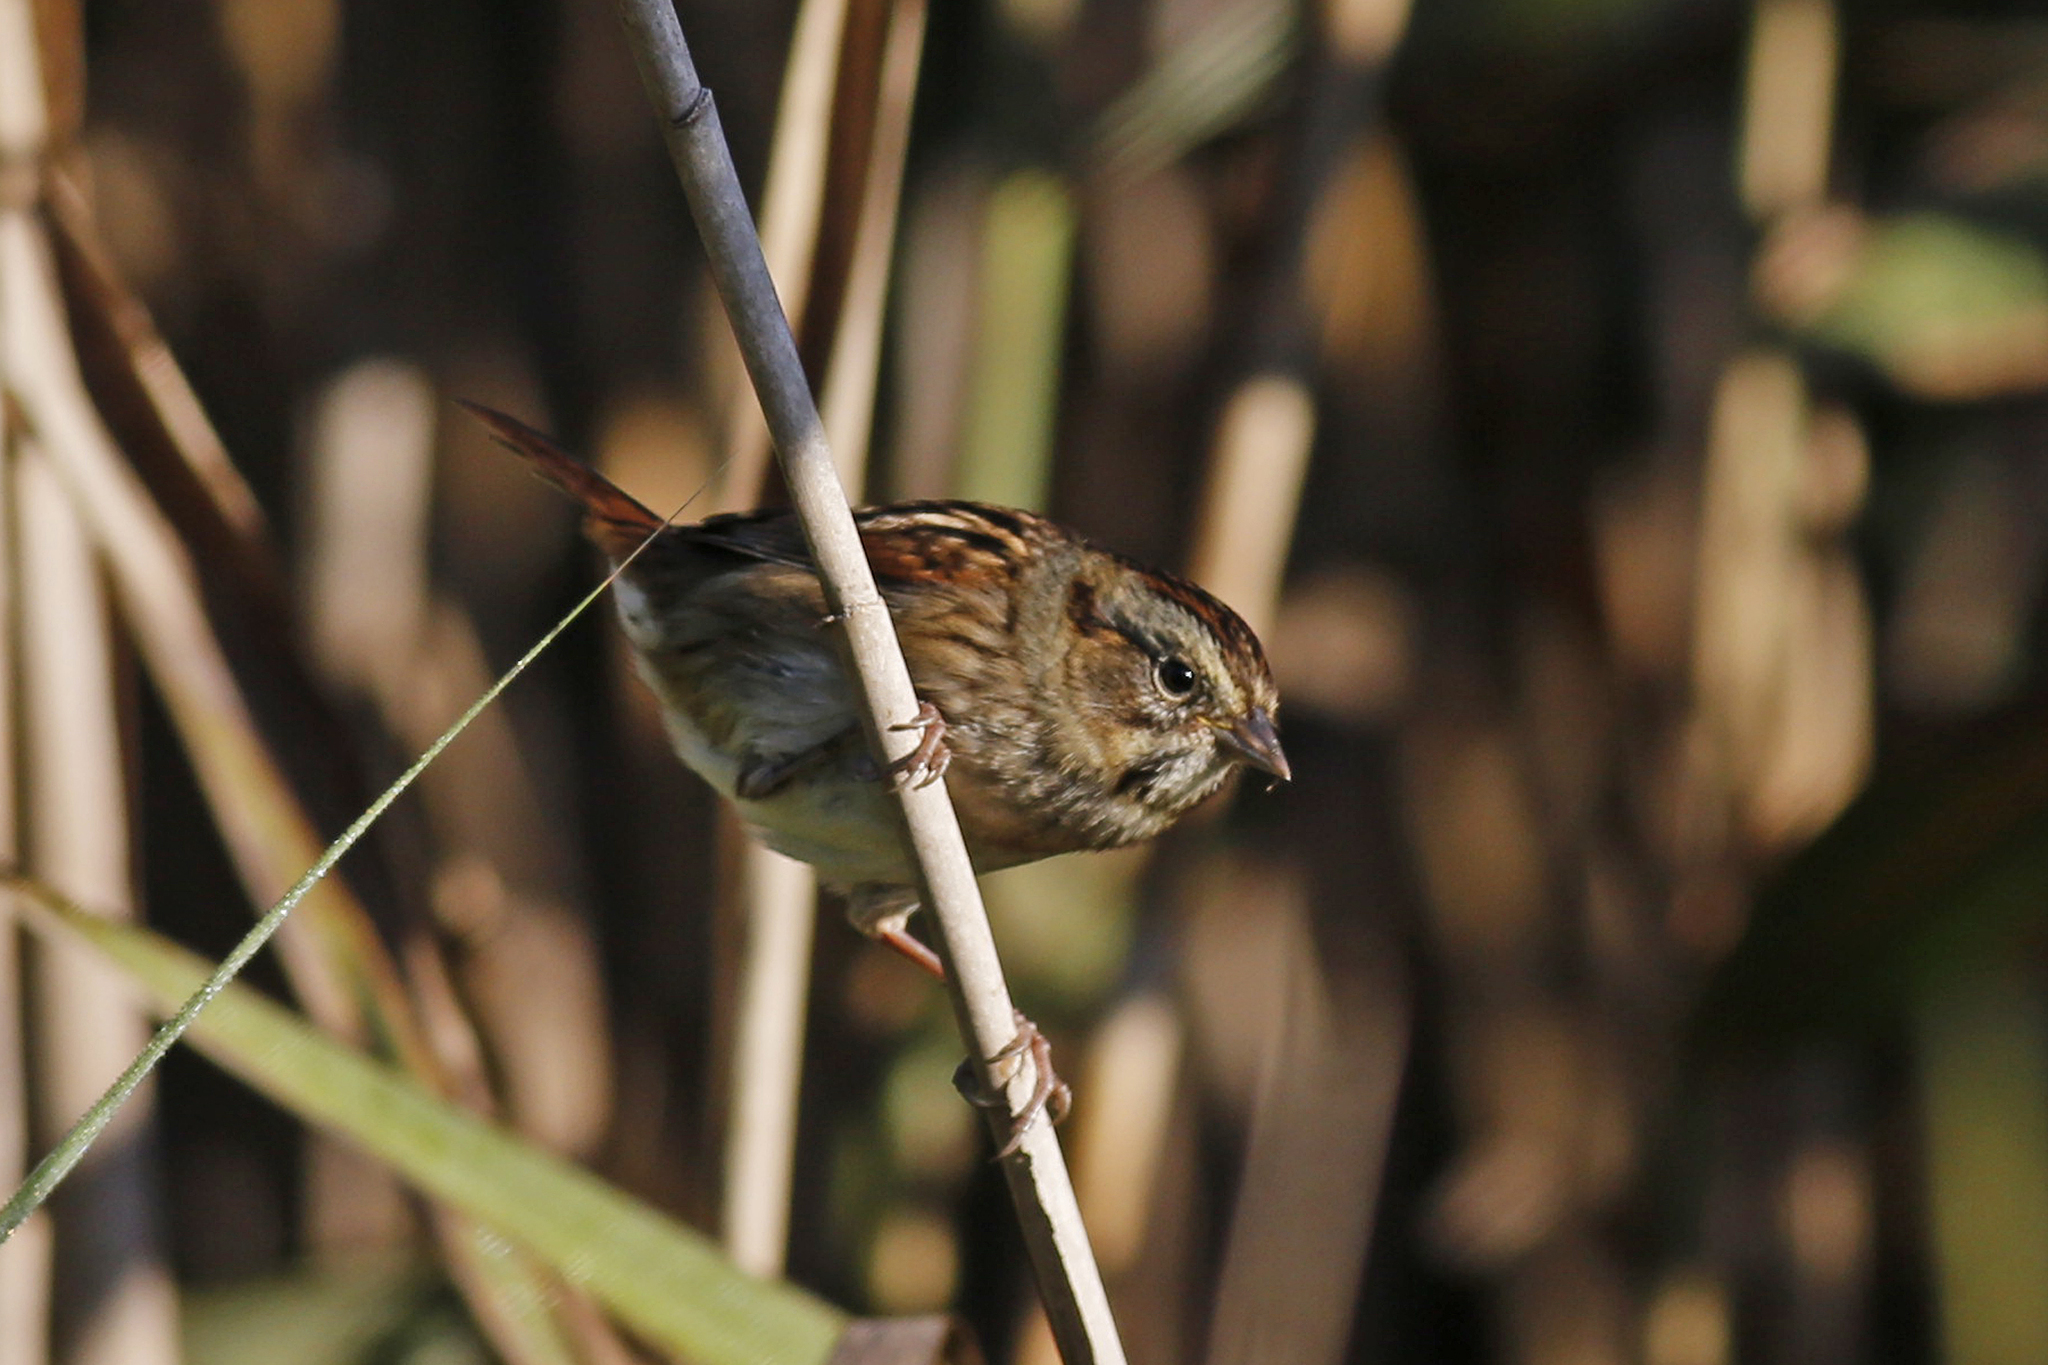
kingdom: Animalia
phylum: Chordata
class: Aves
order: Passeriformes
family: Passerellidae
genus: Melospiza
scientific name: Melospiza georgiana
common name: Swamp sparrow
